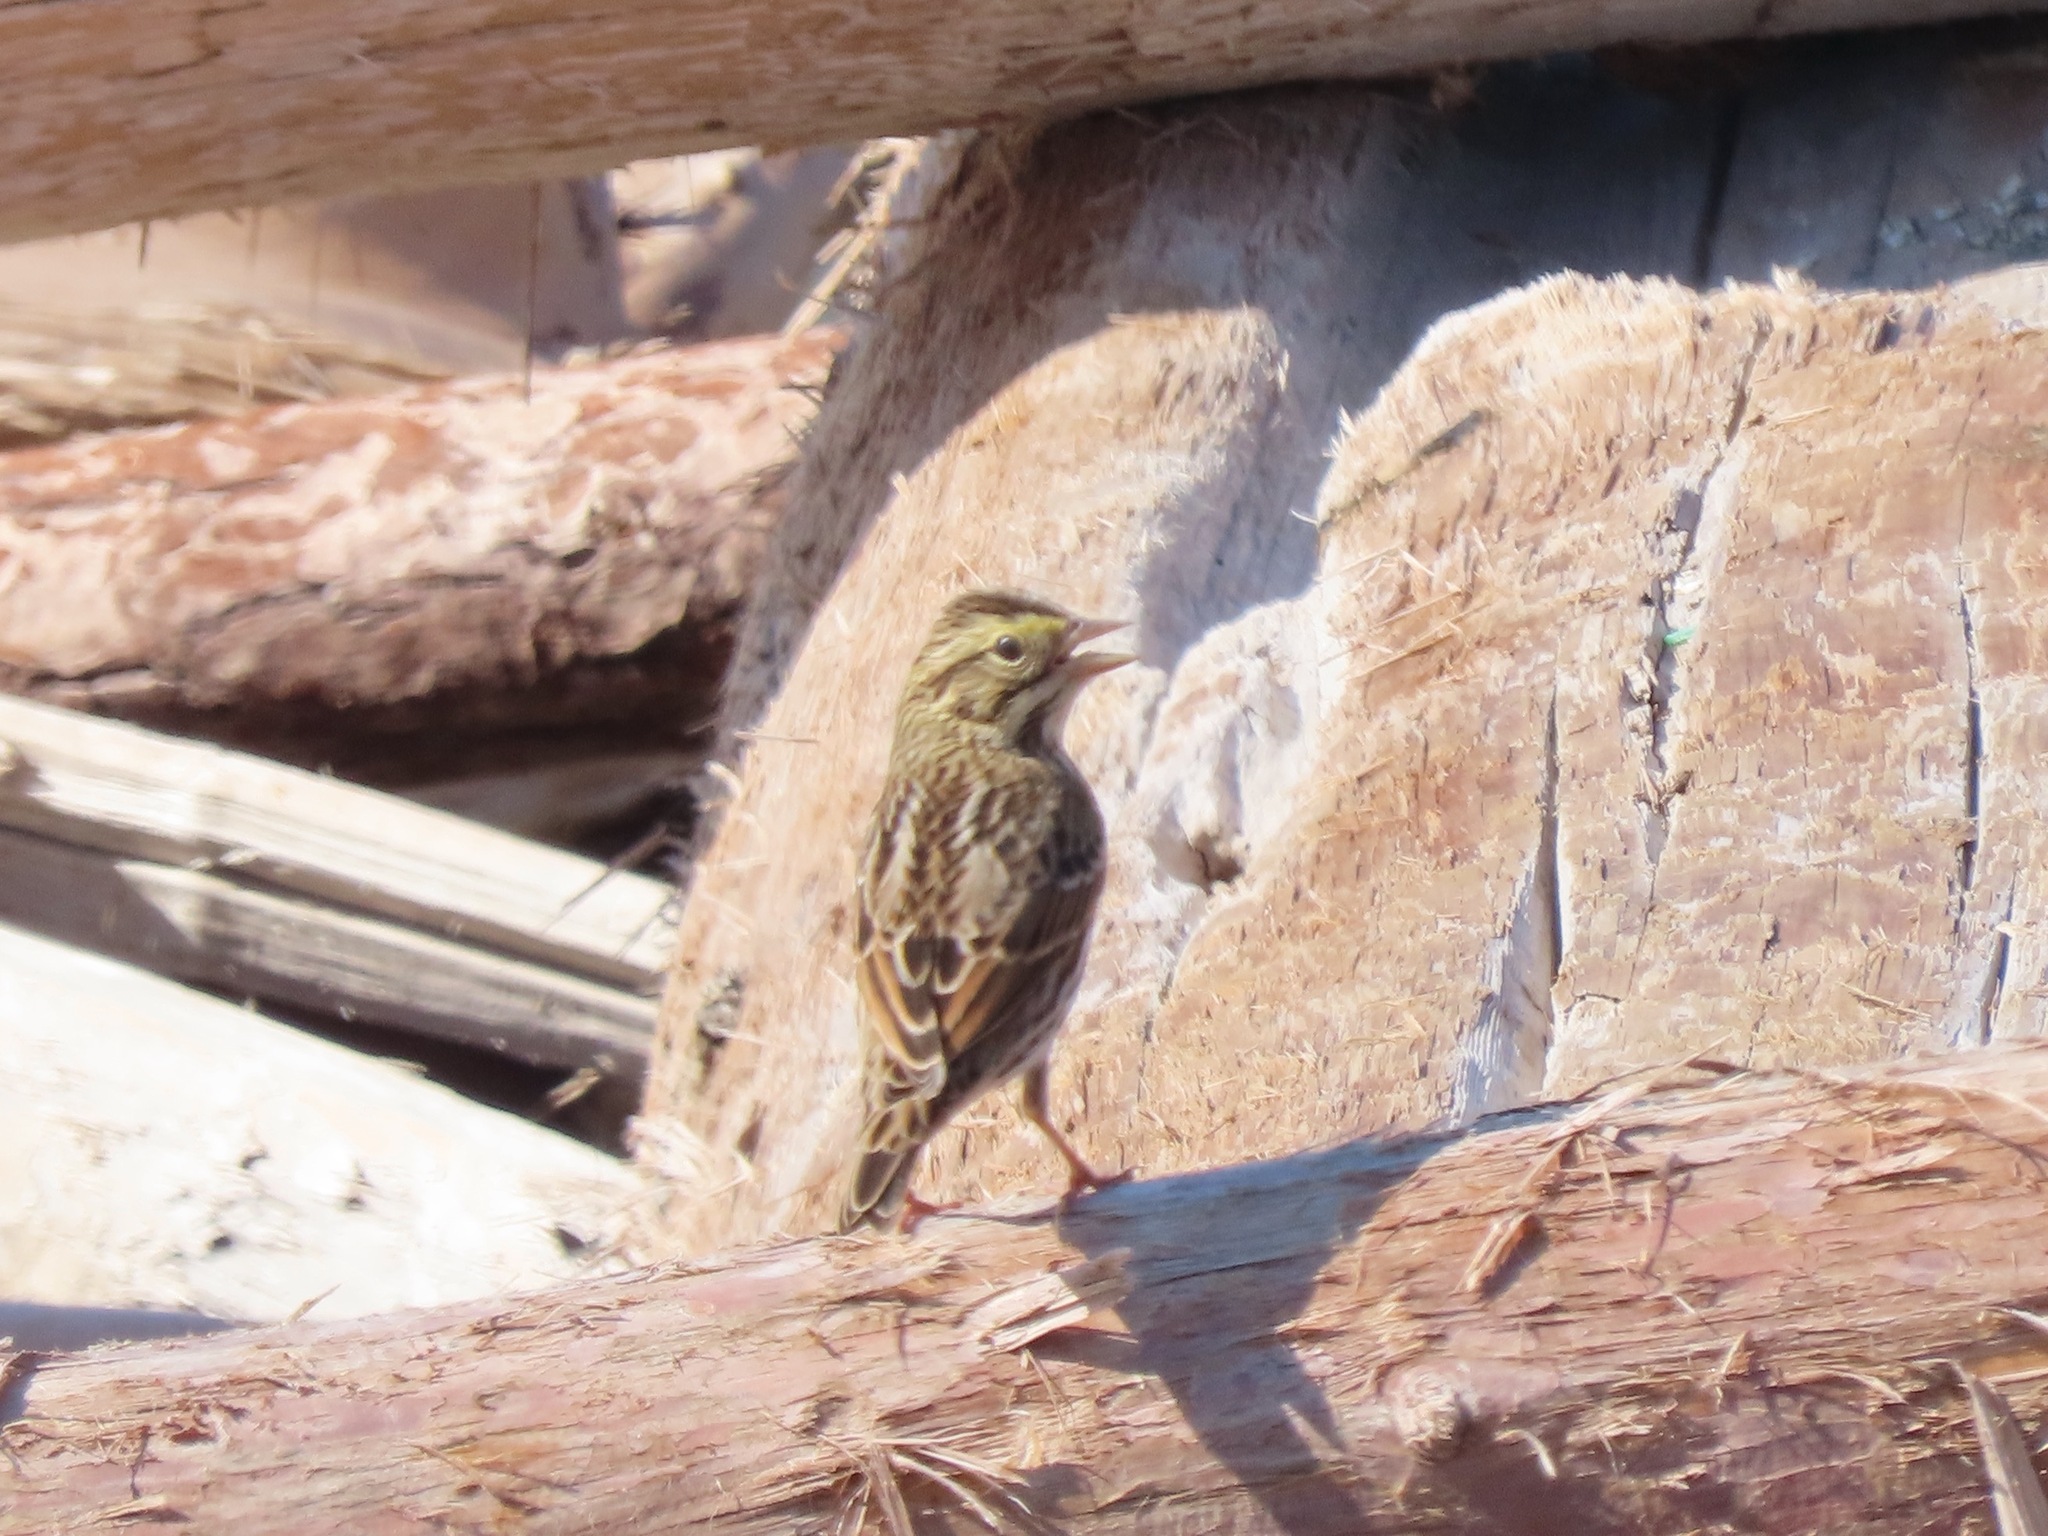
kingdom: Animalia
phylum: Chordata
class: Aves
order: Passeriformes
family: Passerellidae
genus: Passerculus
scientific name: Passerculus sandwichensis
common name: Savannah sparrow
